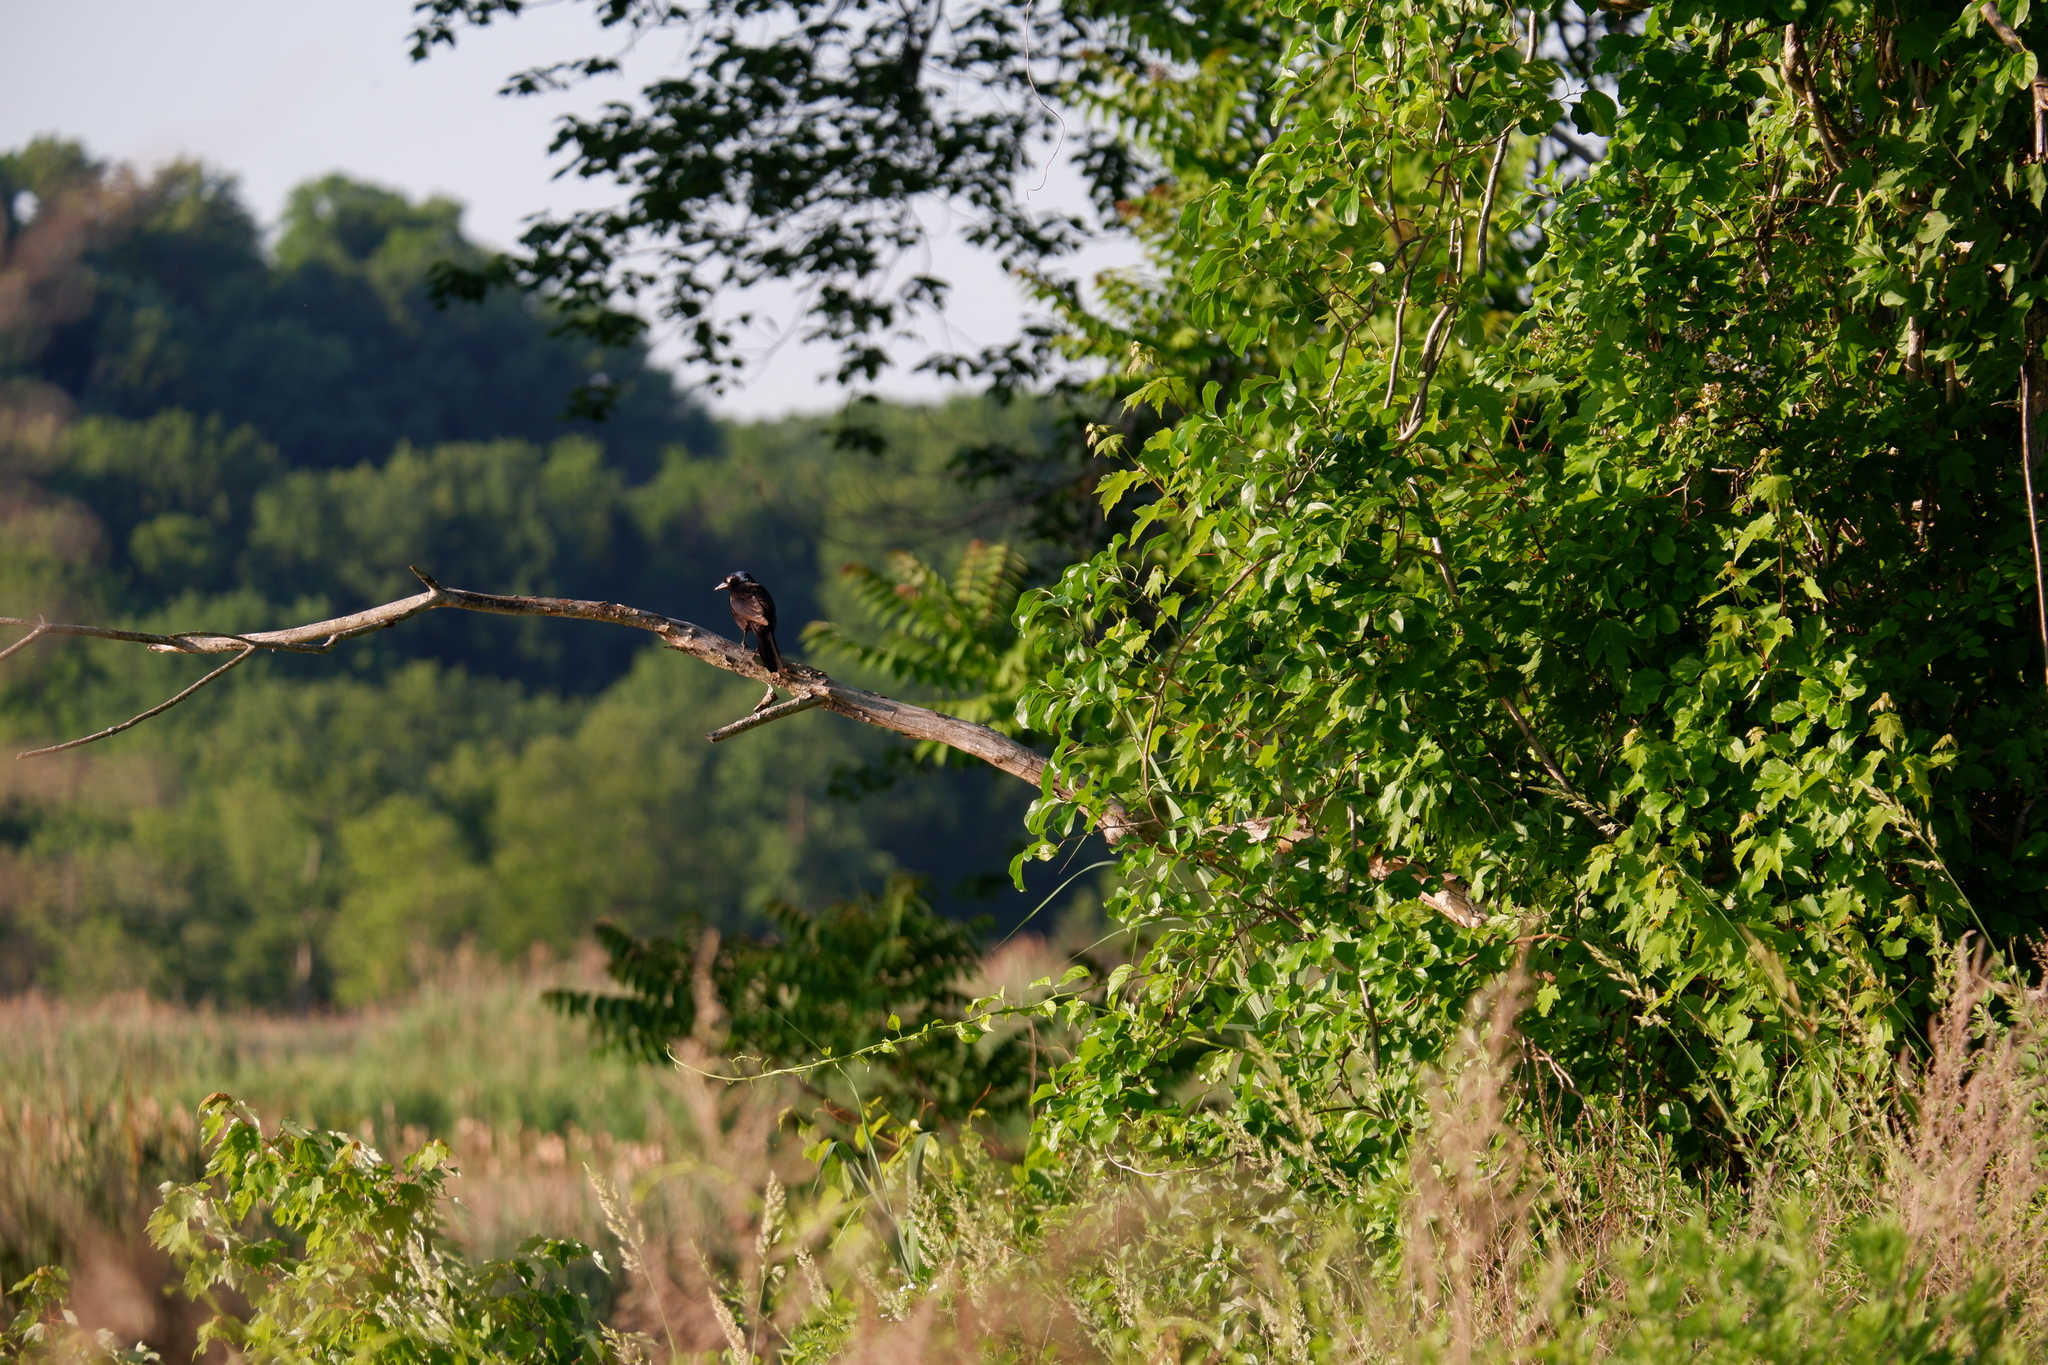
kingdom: Animalia
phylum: Chordata
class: Aves
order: Passeriformes
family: Icteridae
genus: Quiscalus
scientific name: Quiscalus quiscula
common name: Common grackle
